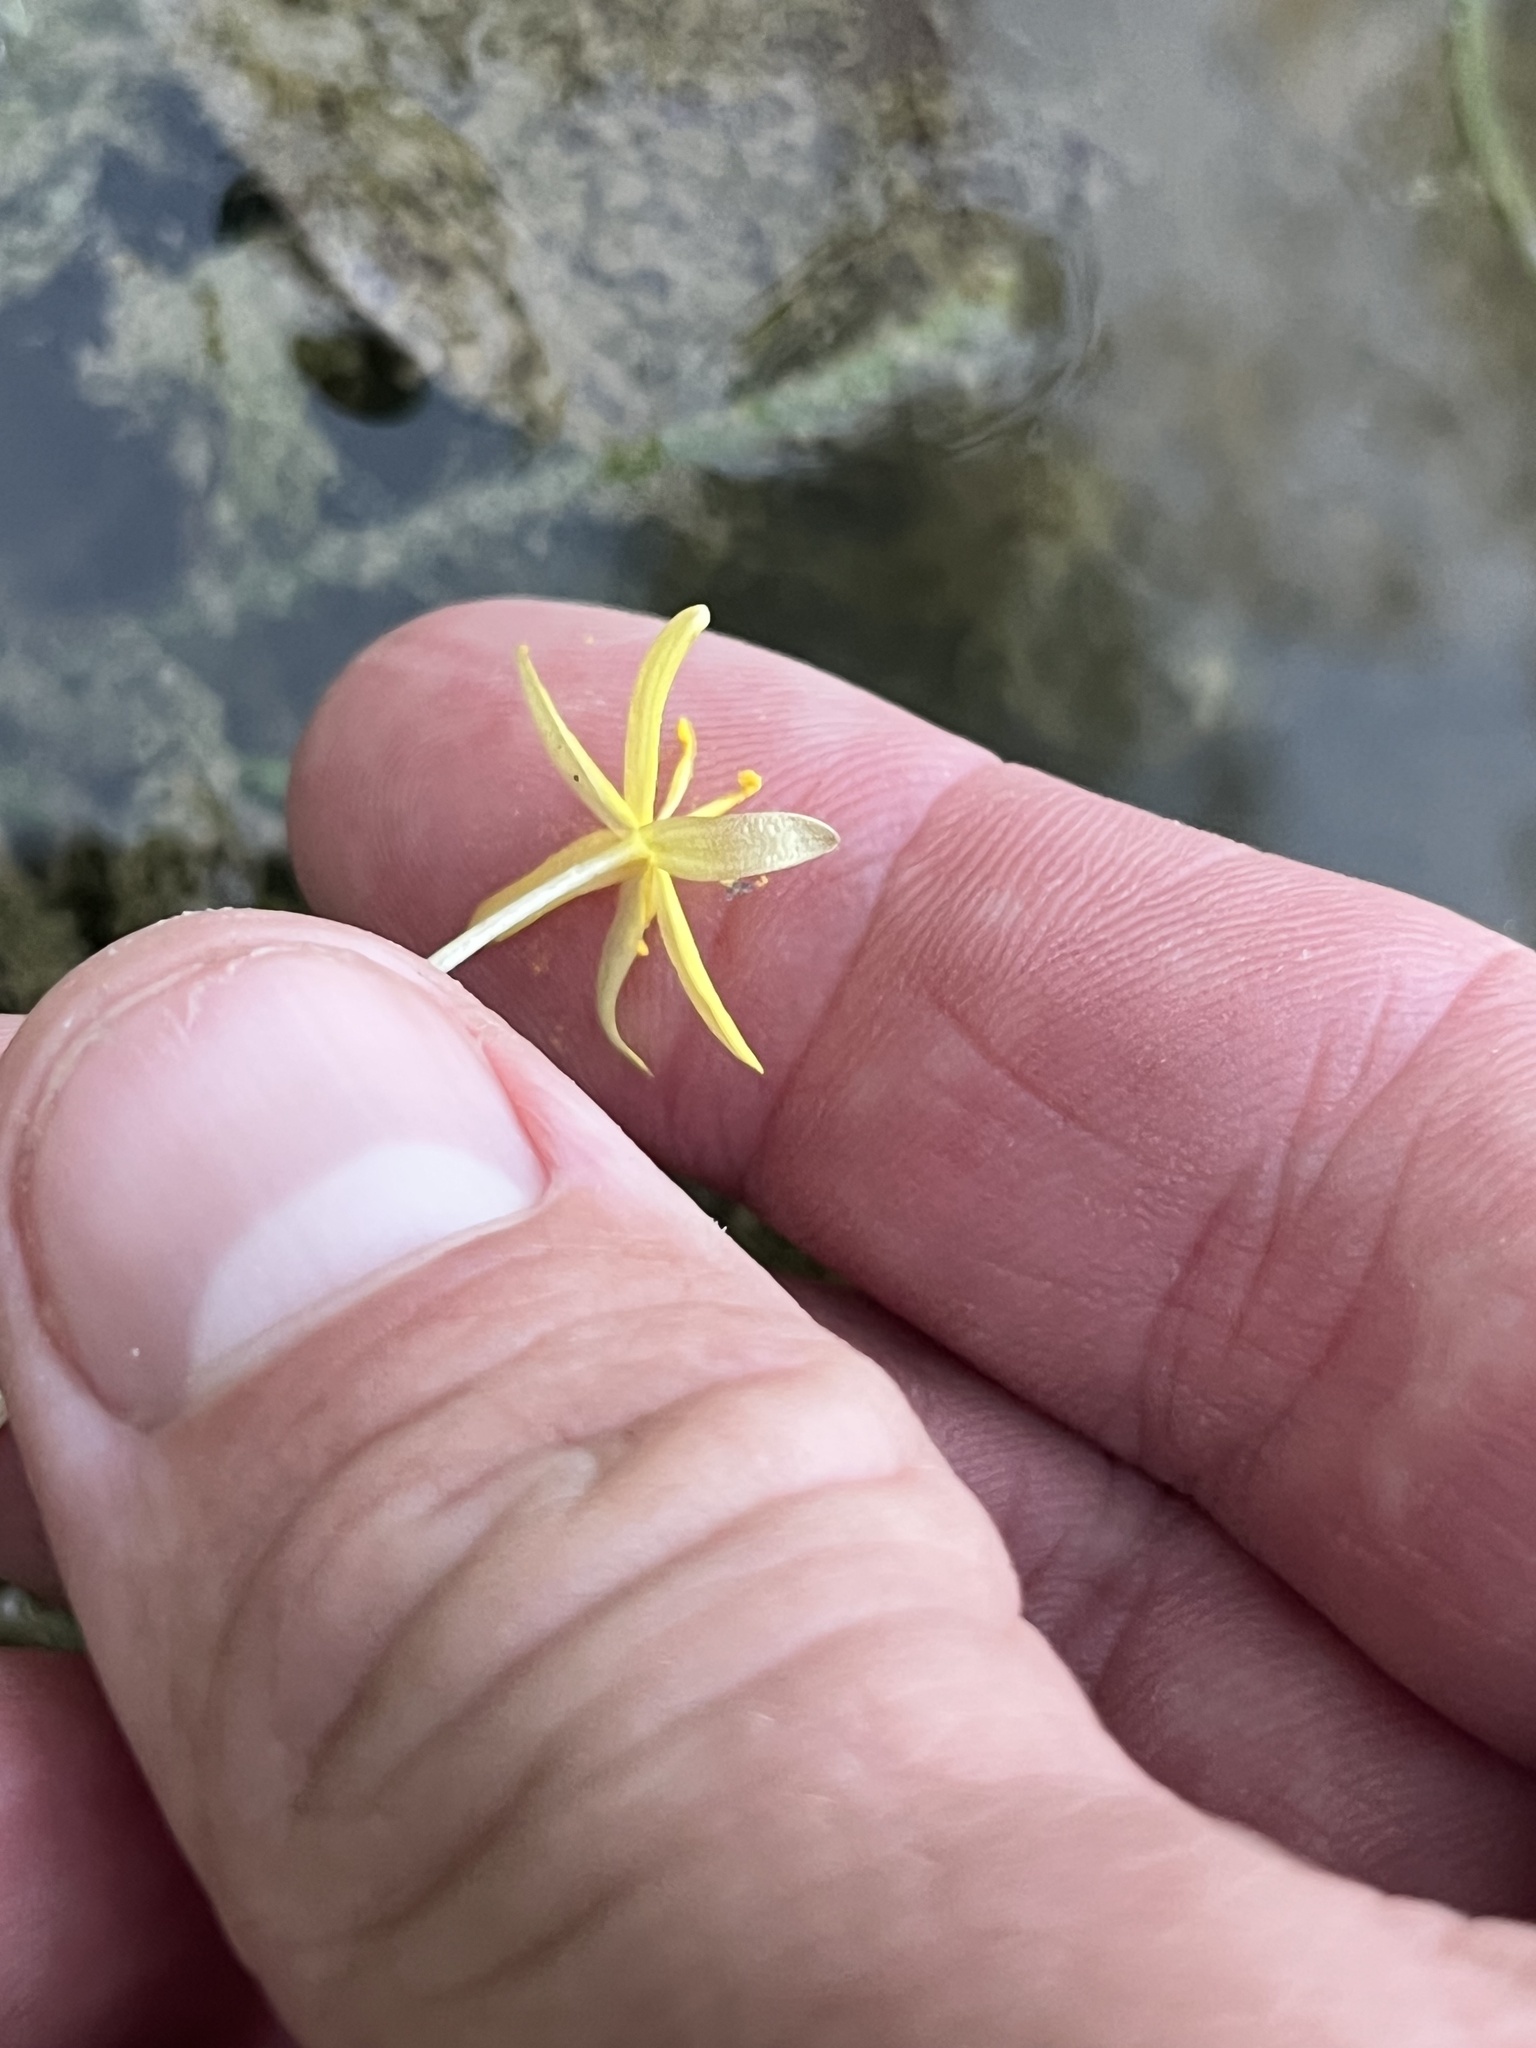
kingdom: Plantae
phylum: Tracheophyta
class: Liliopsida
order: Commelinales
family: Pontederiaceae
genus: Heteranthera
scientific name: Heteranthera dubia
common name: Grass-leaved mud plantain
